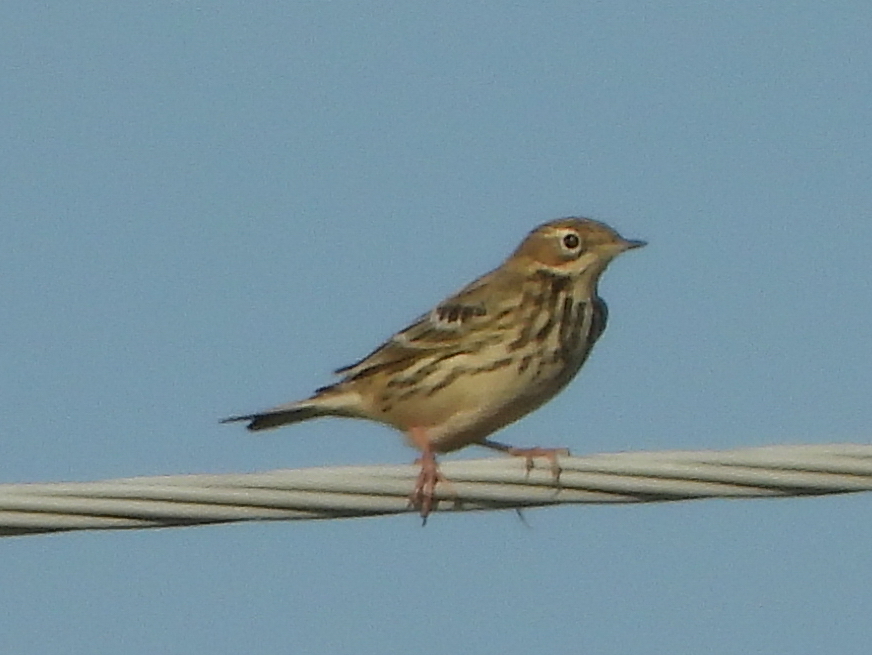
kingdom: Animalia
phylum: Chordata
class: Aves
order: Passeriformes
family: Motacillidae
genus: Anthus
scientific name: Anthus pratensis
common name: Meadow pipit
